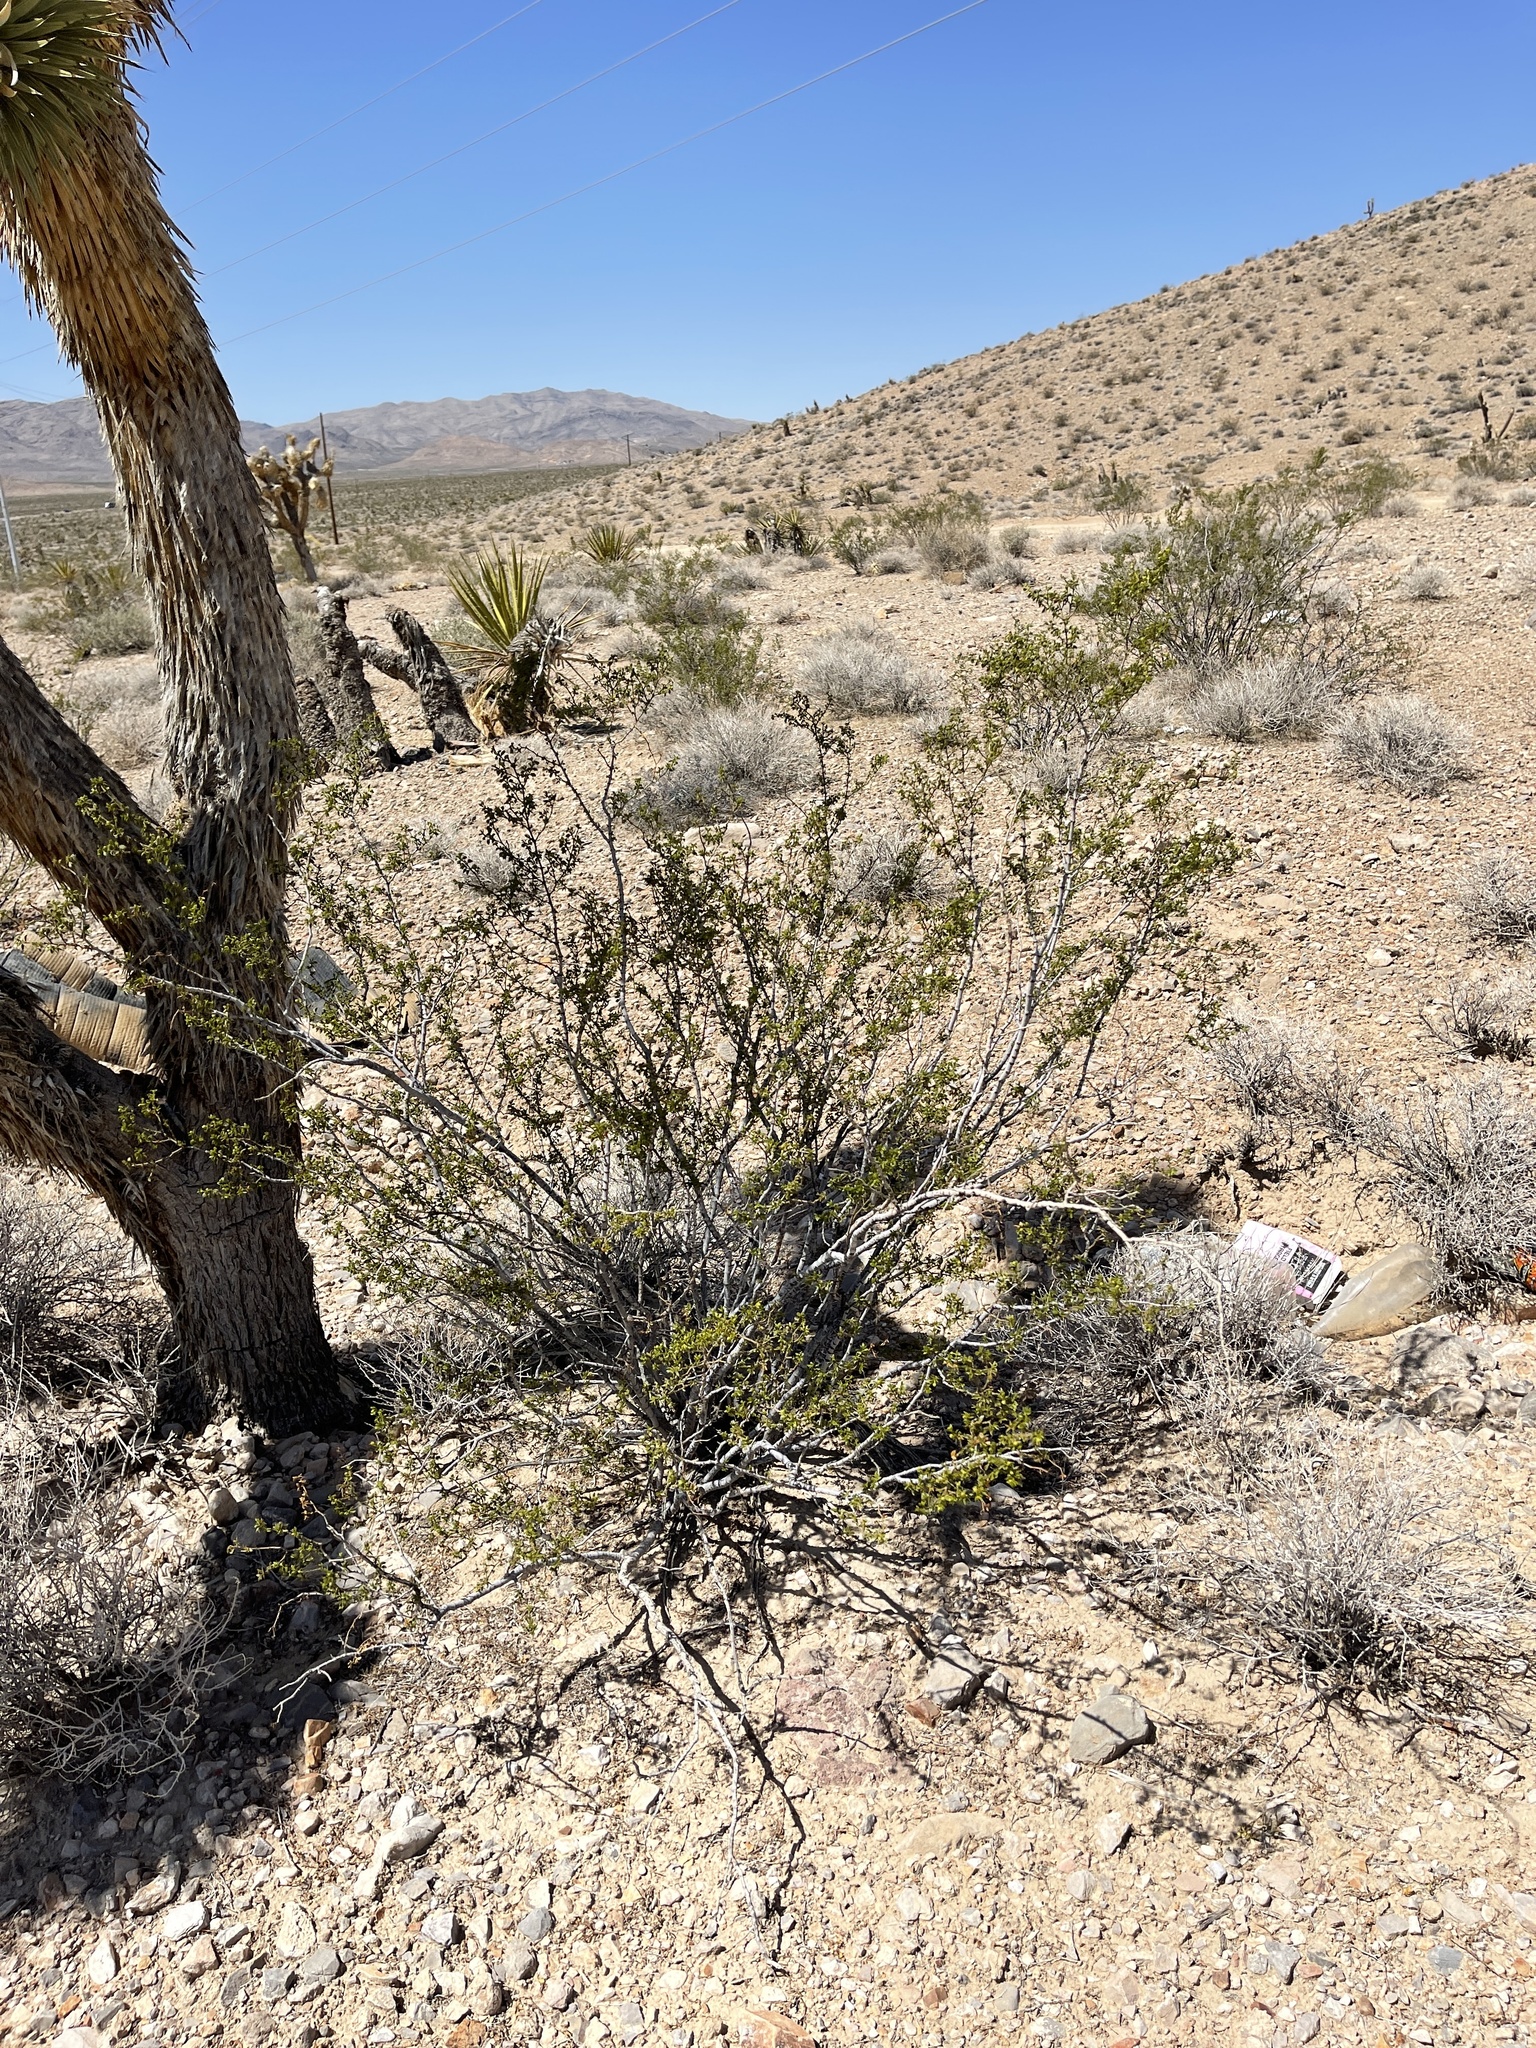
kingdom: Plantae
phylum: Tracheophyta
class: Magnoliopsida
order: Zygophyllales
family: Zygophyllaceae
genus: Larrea
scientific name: Larrea tridentata
